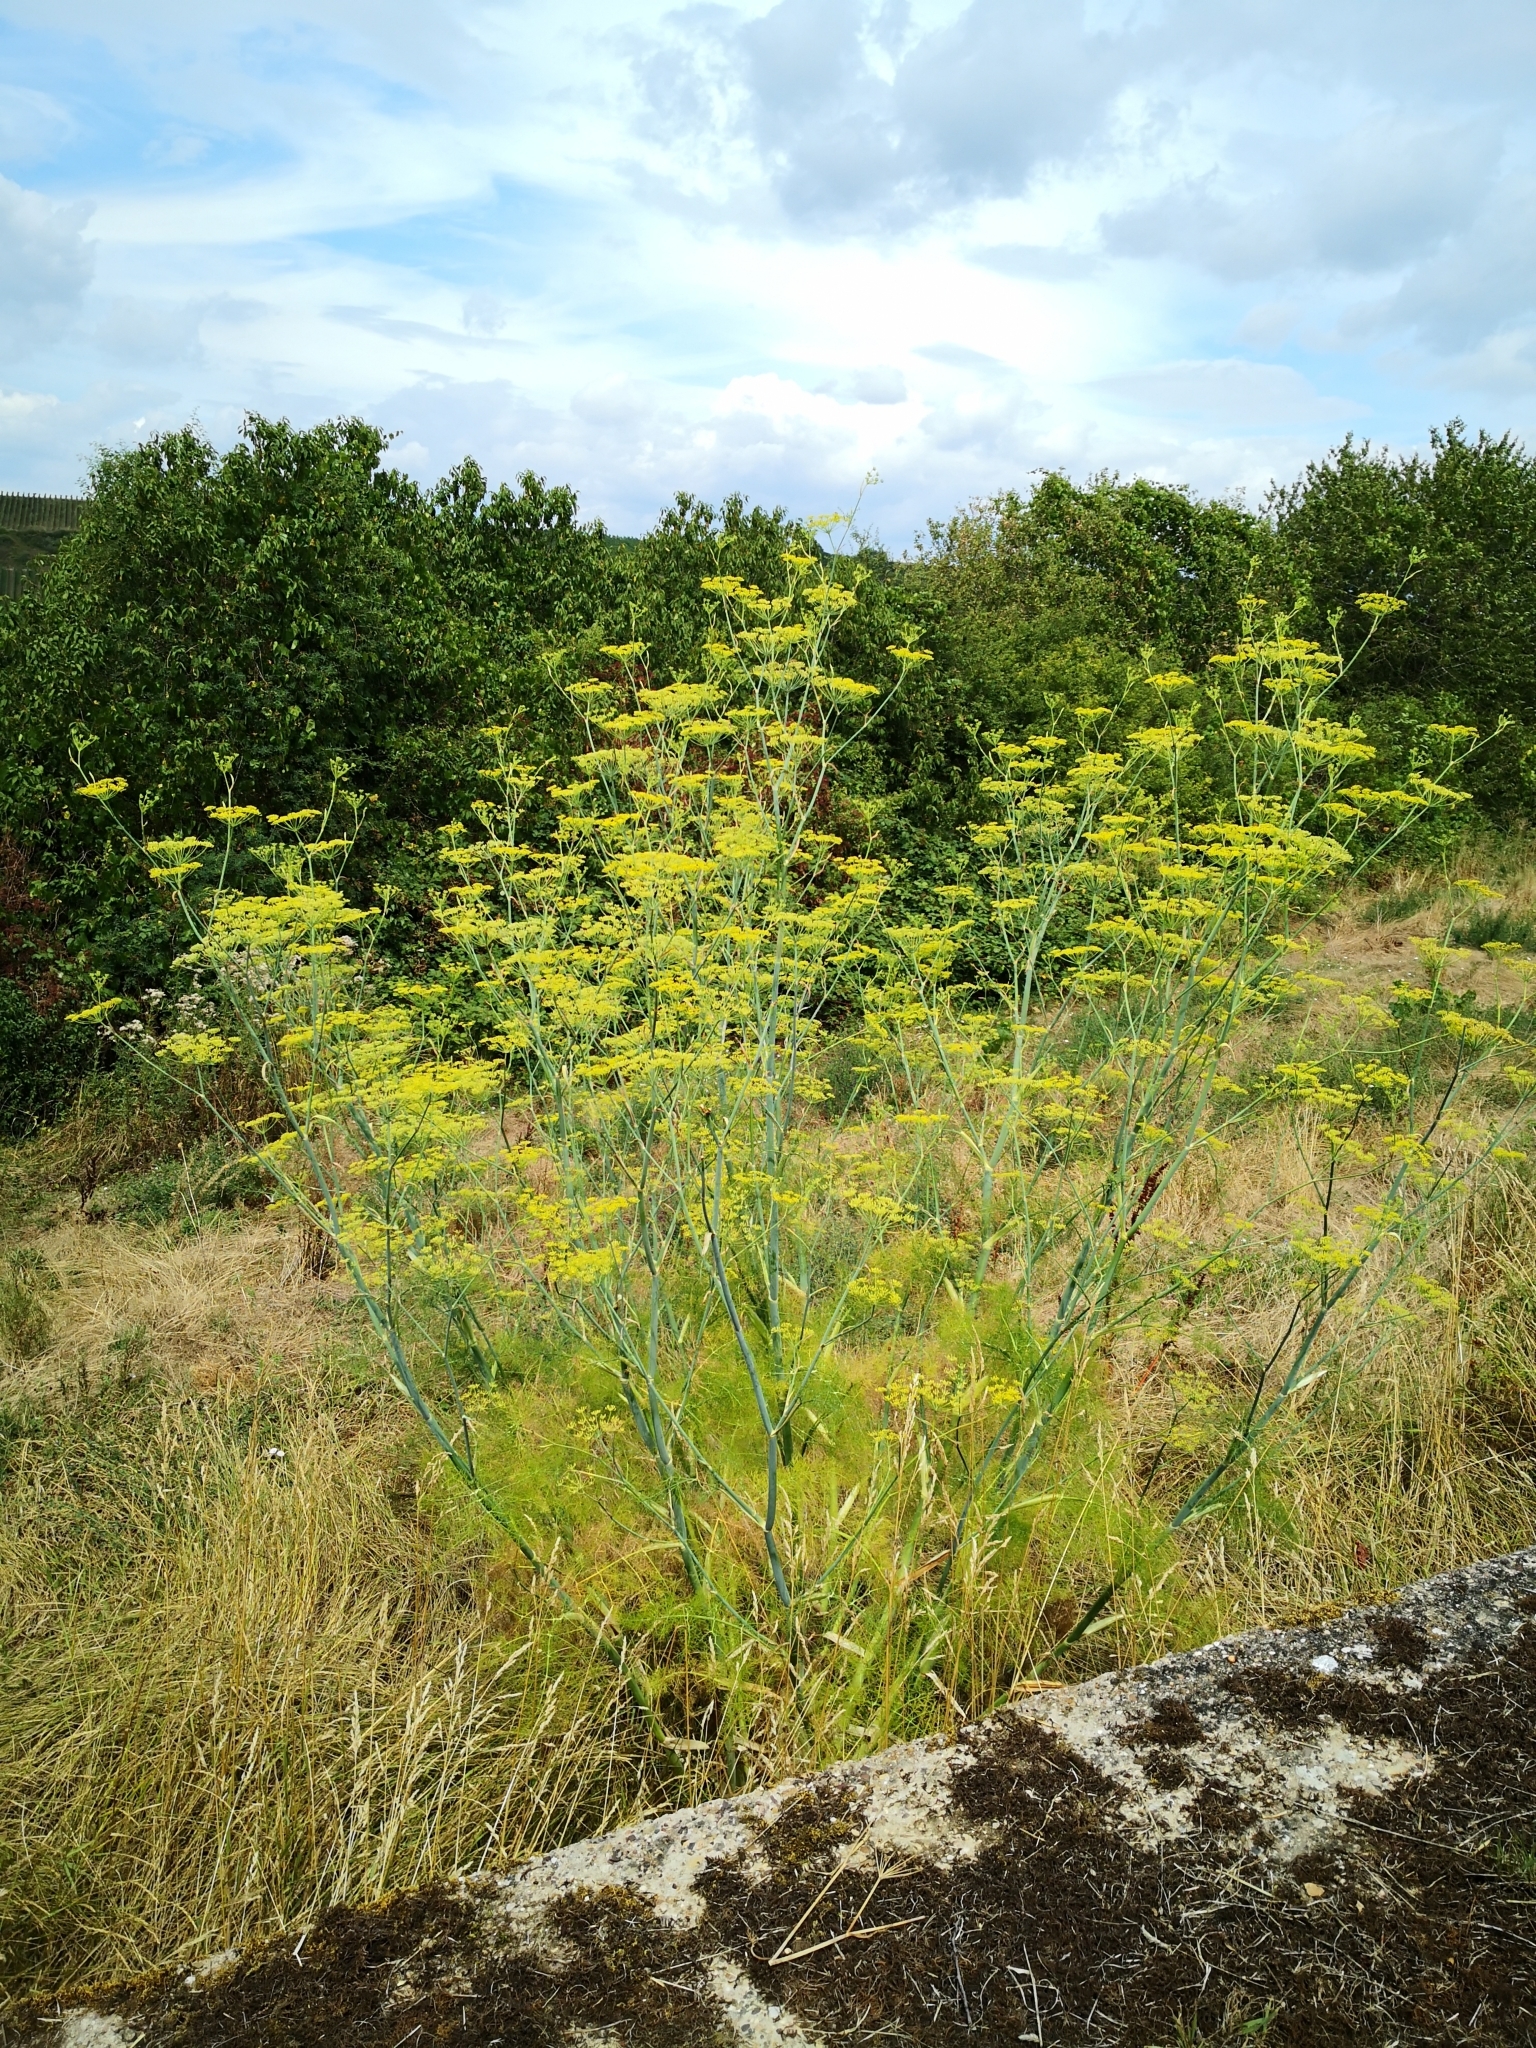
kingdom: Plantae
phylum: Tracheophyta
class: Magnoliopsida
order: Apiales
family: Apiaceae
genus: Foeniculum
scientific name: Foeniculum vulgare
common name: Fennel
